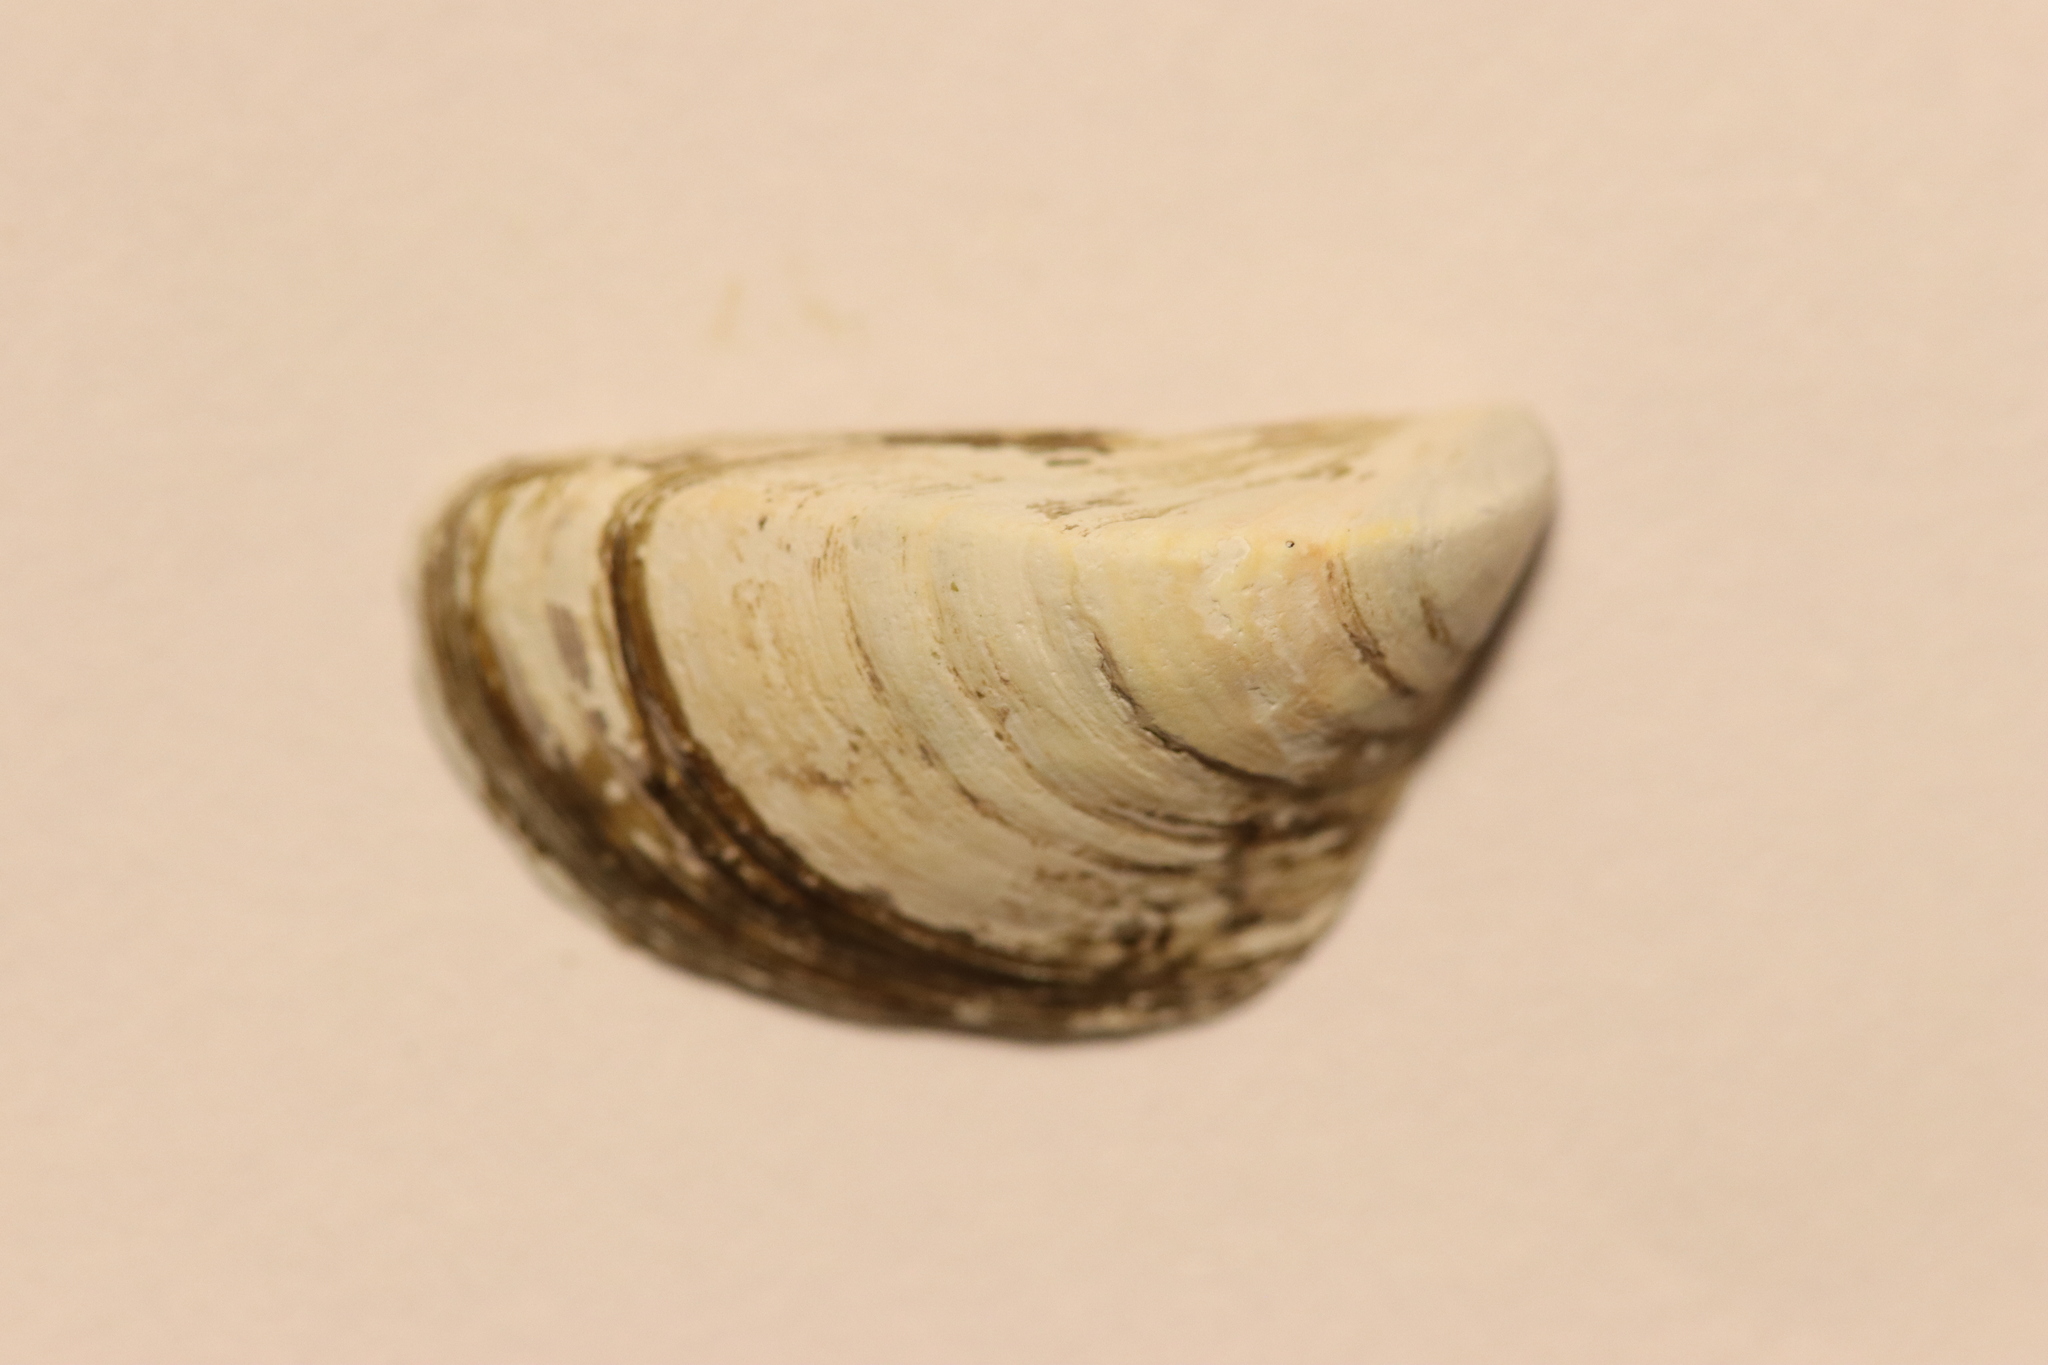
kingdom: Animalia
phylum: Mollusca
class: Bivalvia
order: Myida
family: Dreissenidae
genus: Dreissena
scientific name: Dreissena polymorpha
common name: Zebra mussel
